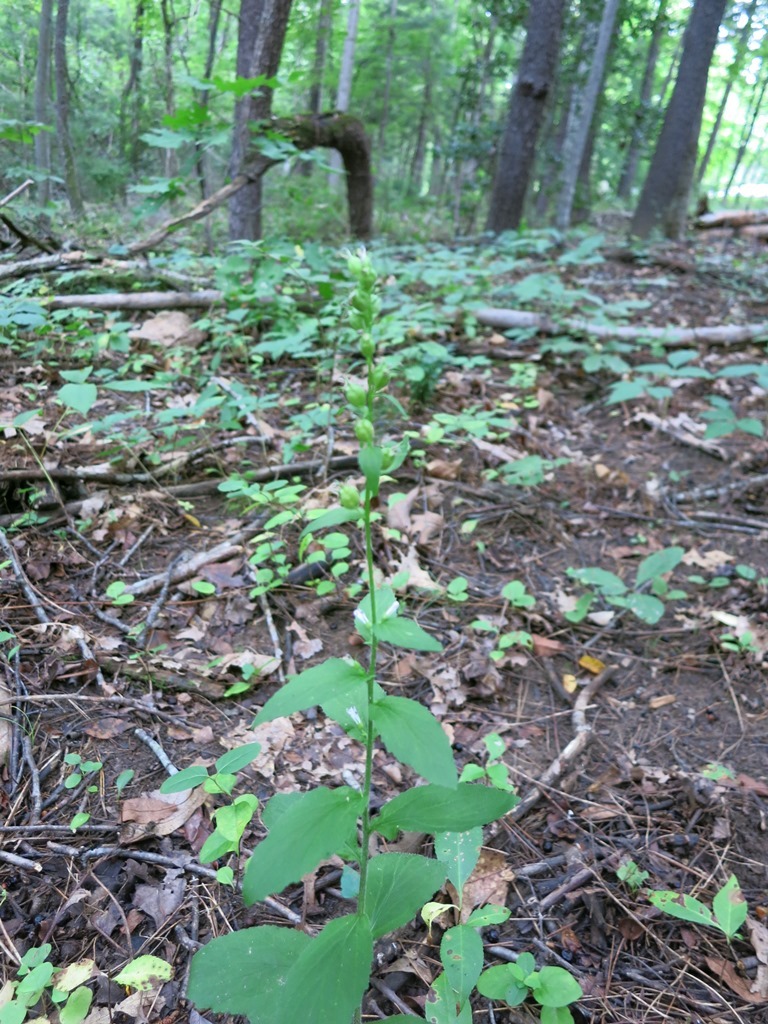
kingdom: Plantae
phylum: Tracheophyta
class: Magnoliopsida
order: Asterales
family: Campanulaceae
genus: Lobelia
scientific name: Lobelia inflata
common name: Indian tobacco
